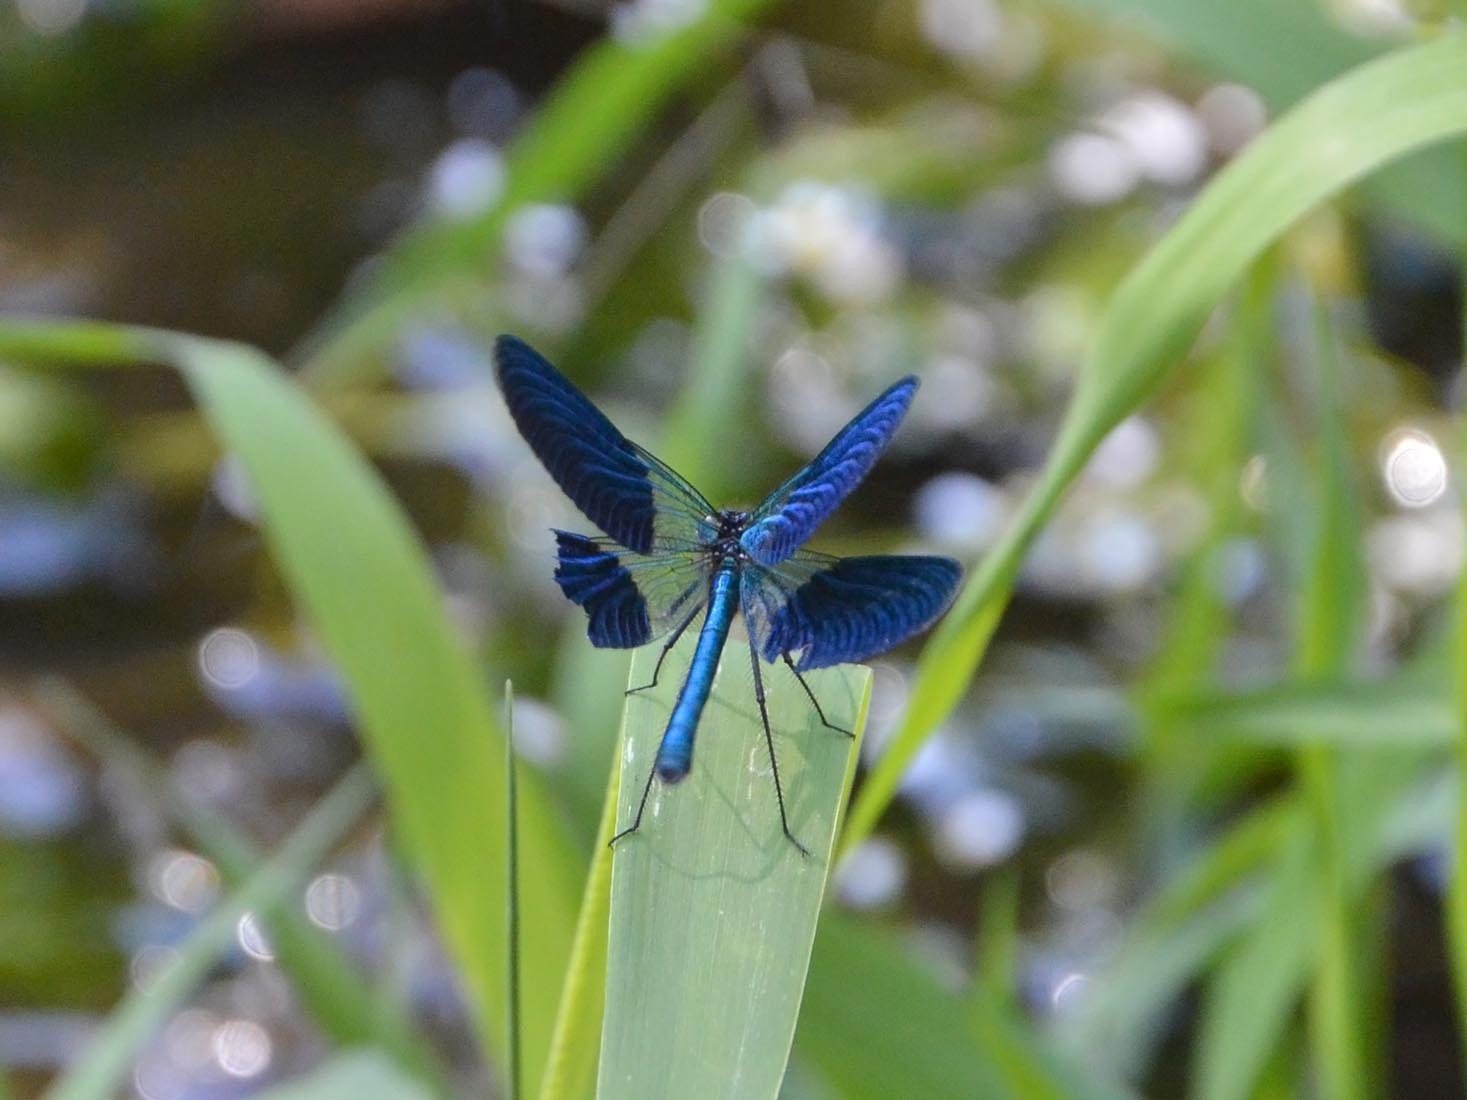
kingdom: Animalia
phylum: Arthropoda
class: Insecta
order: Odonata
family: Calopterygidae
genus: Calopteryx
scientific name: Calopteryx splendens
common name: Banded demoiselle
